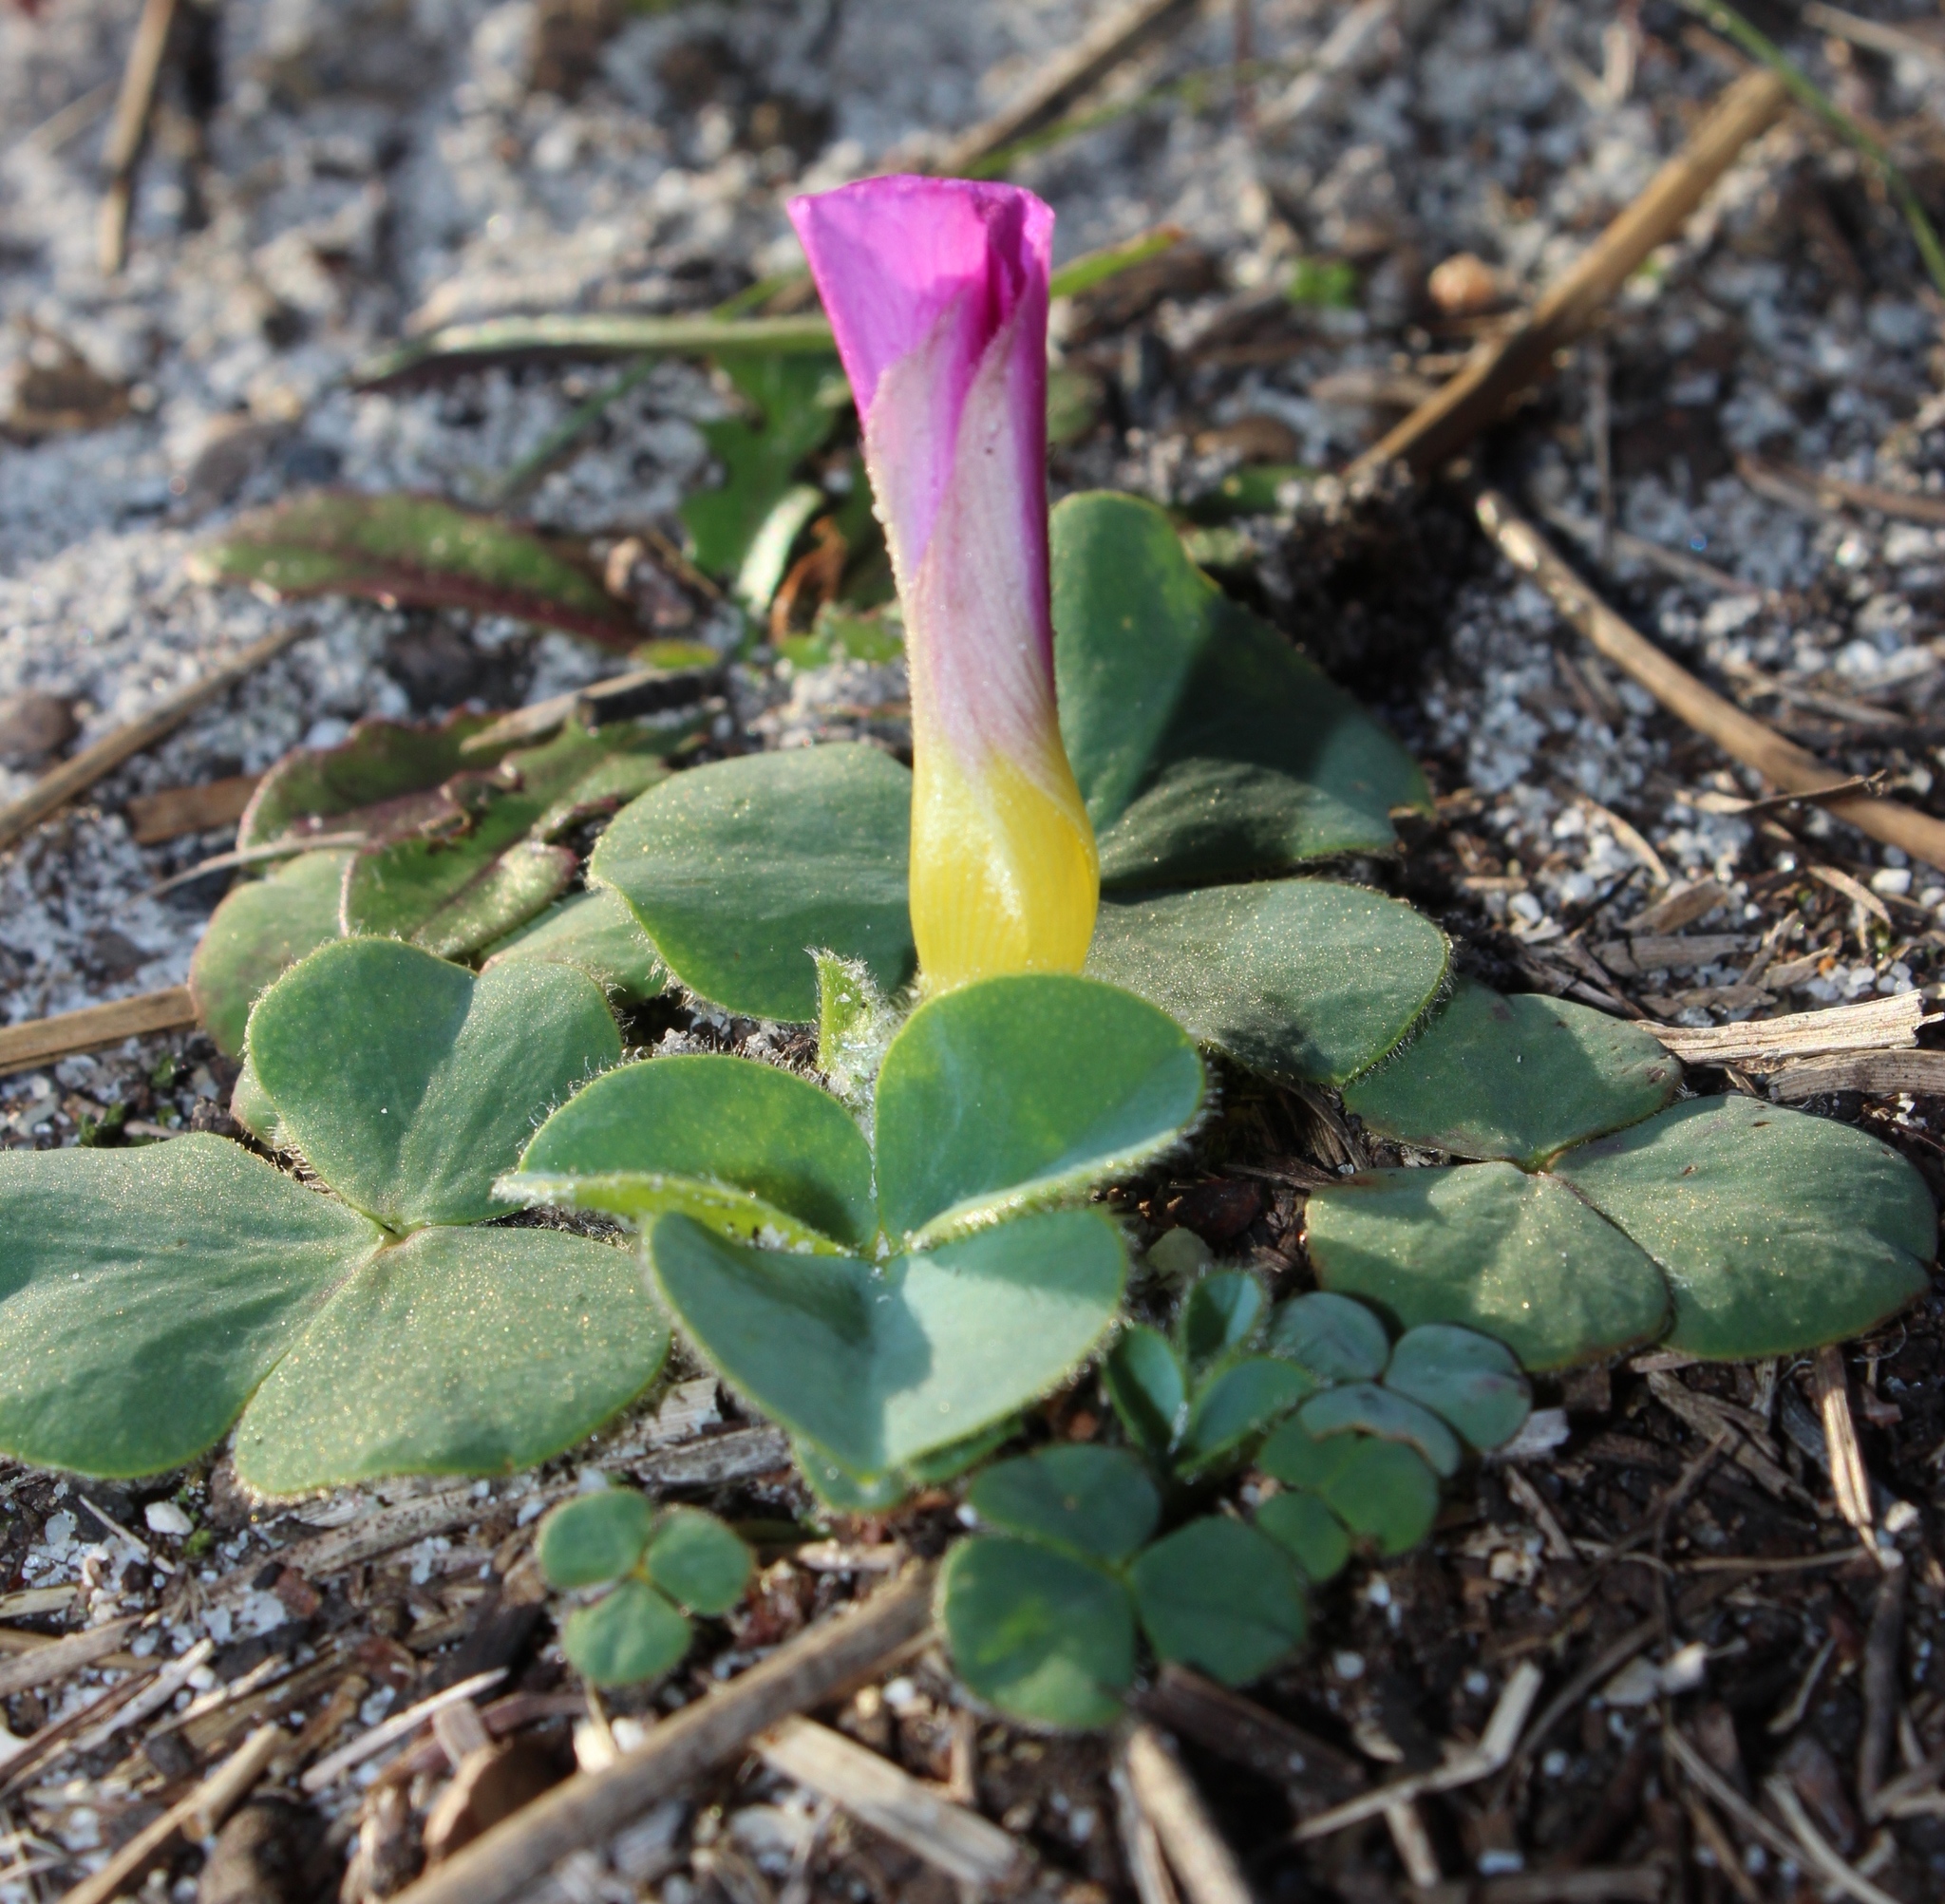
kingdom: Plantae
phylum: Tracheophyta
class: Magnoliopsida
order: Oxalidales
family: Oxalidaceae
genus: Oxalis
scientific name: Oxalis purpurea
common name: Purple woodsorrel
